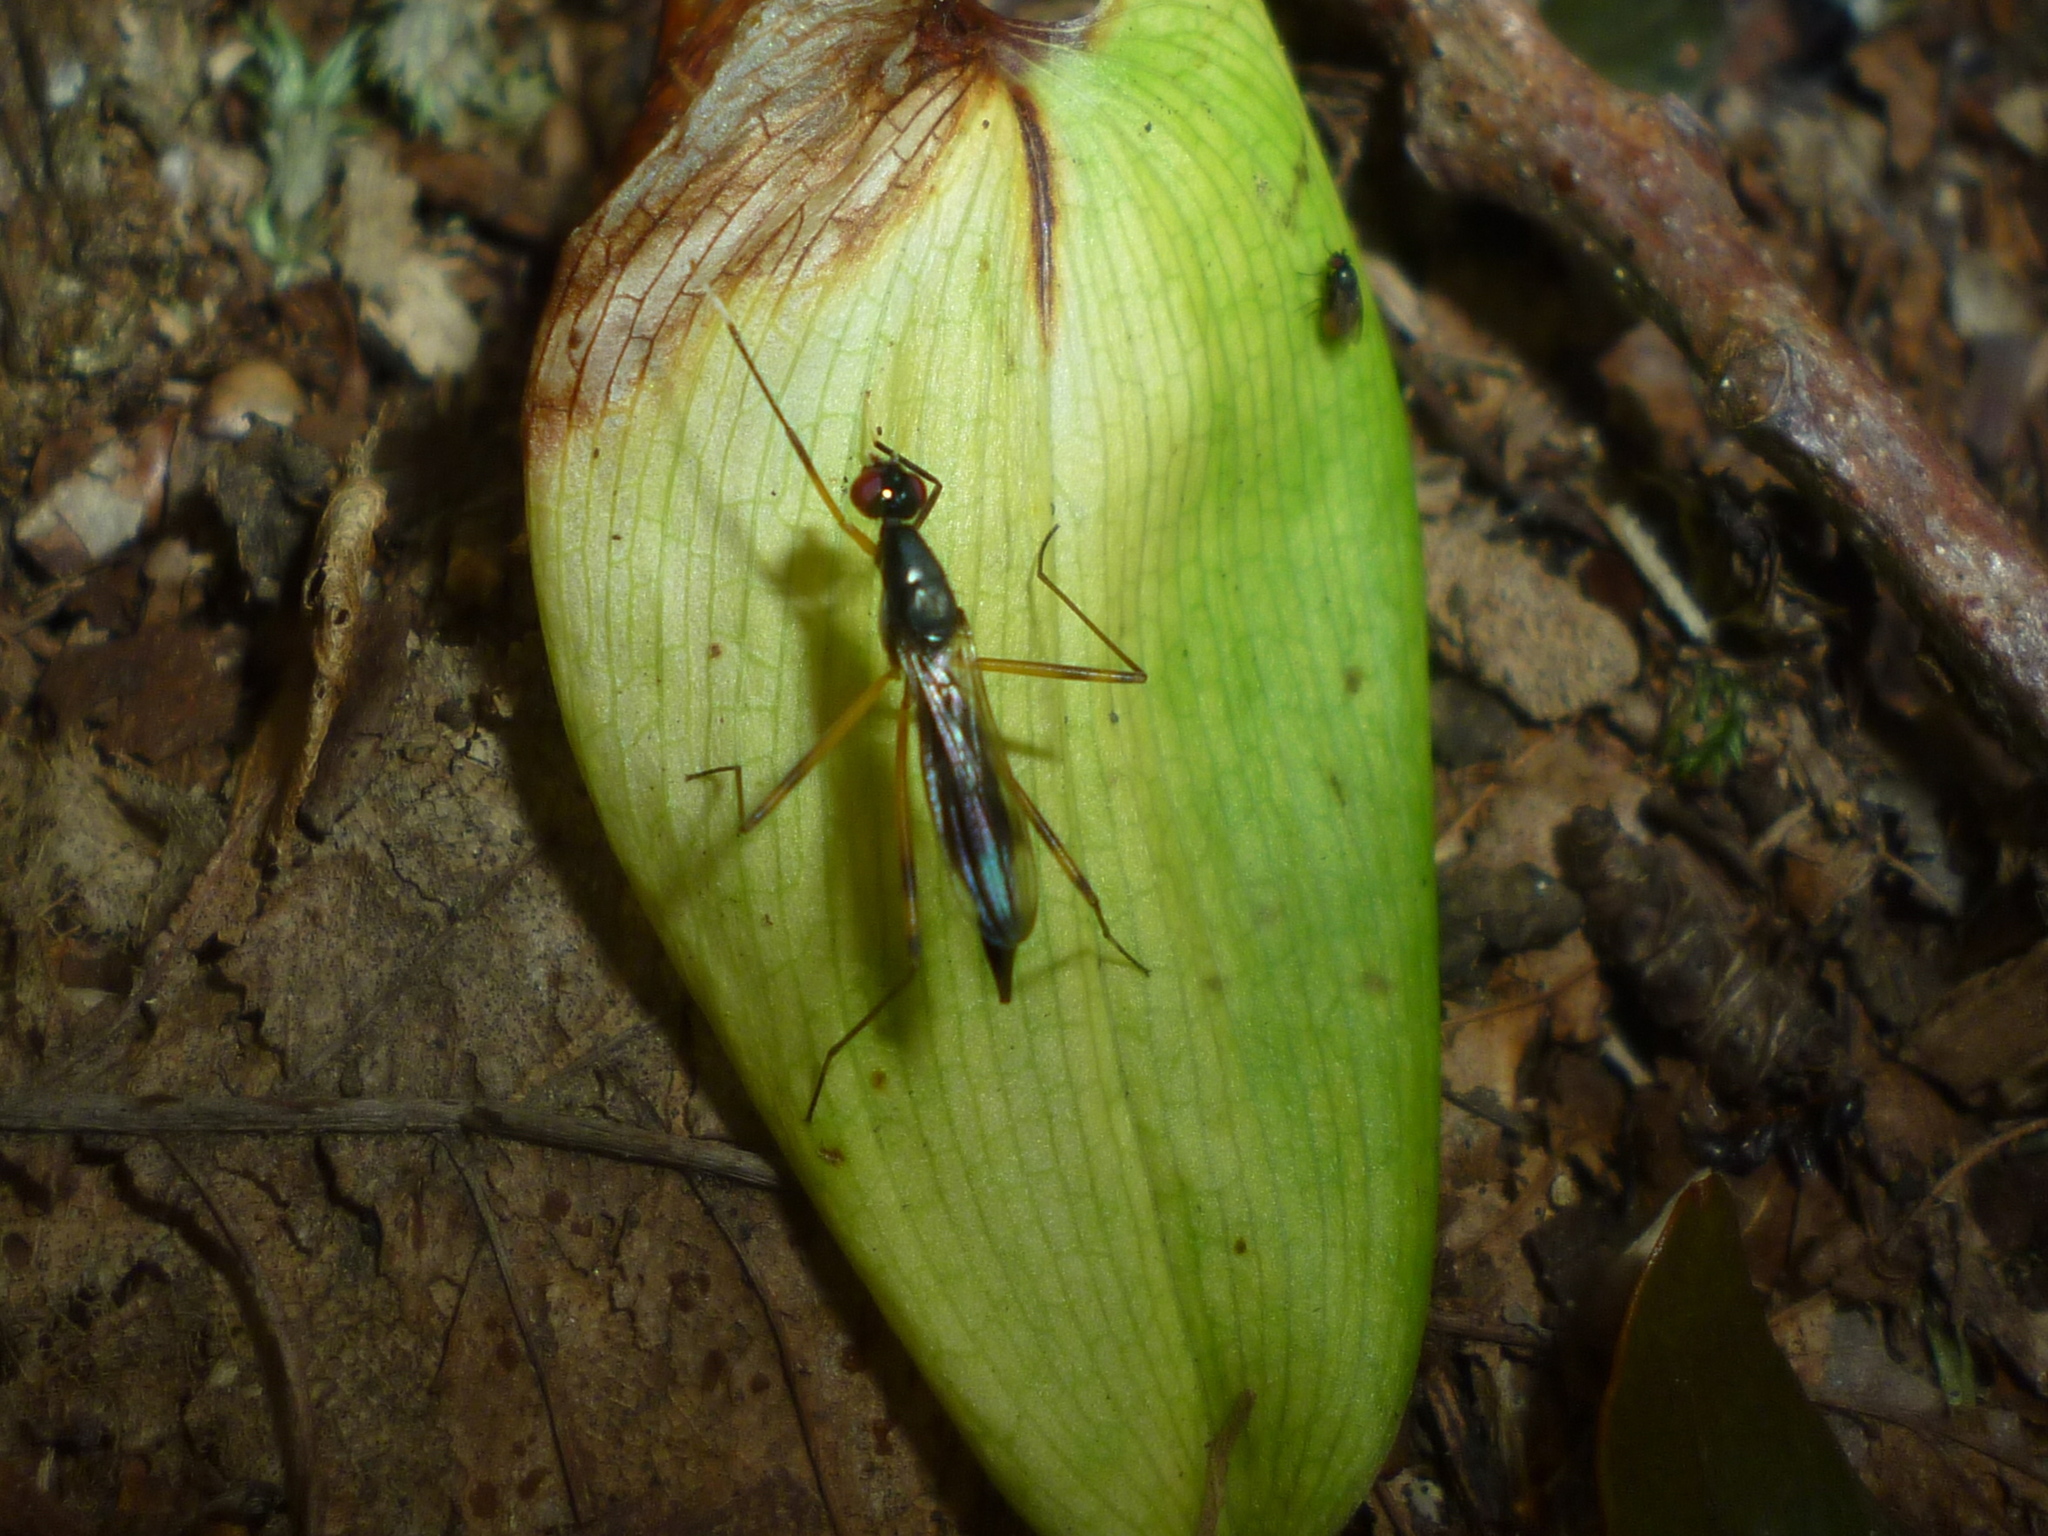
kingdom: Animalia
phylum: Arthropoda
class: Insecta
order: Diptera
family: Micropezidae
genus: Rainieria
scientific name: Rainieria antennaepes
